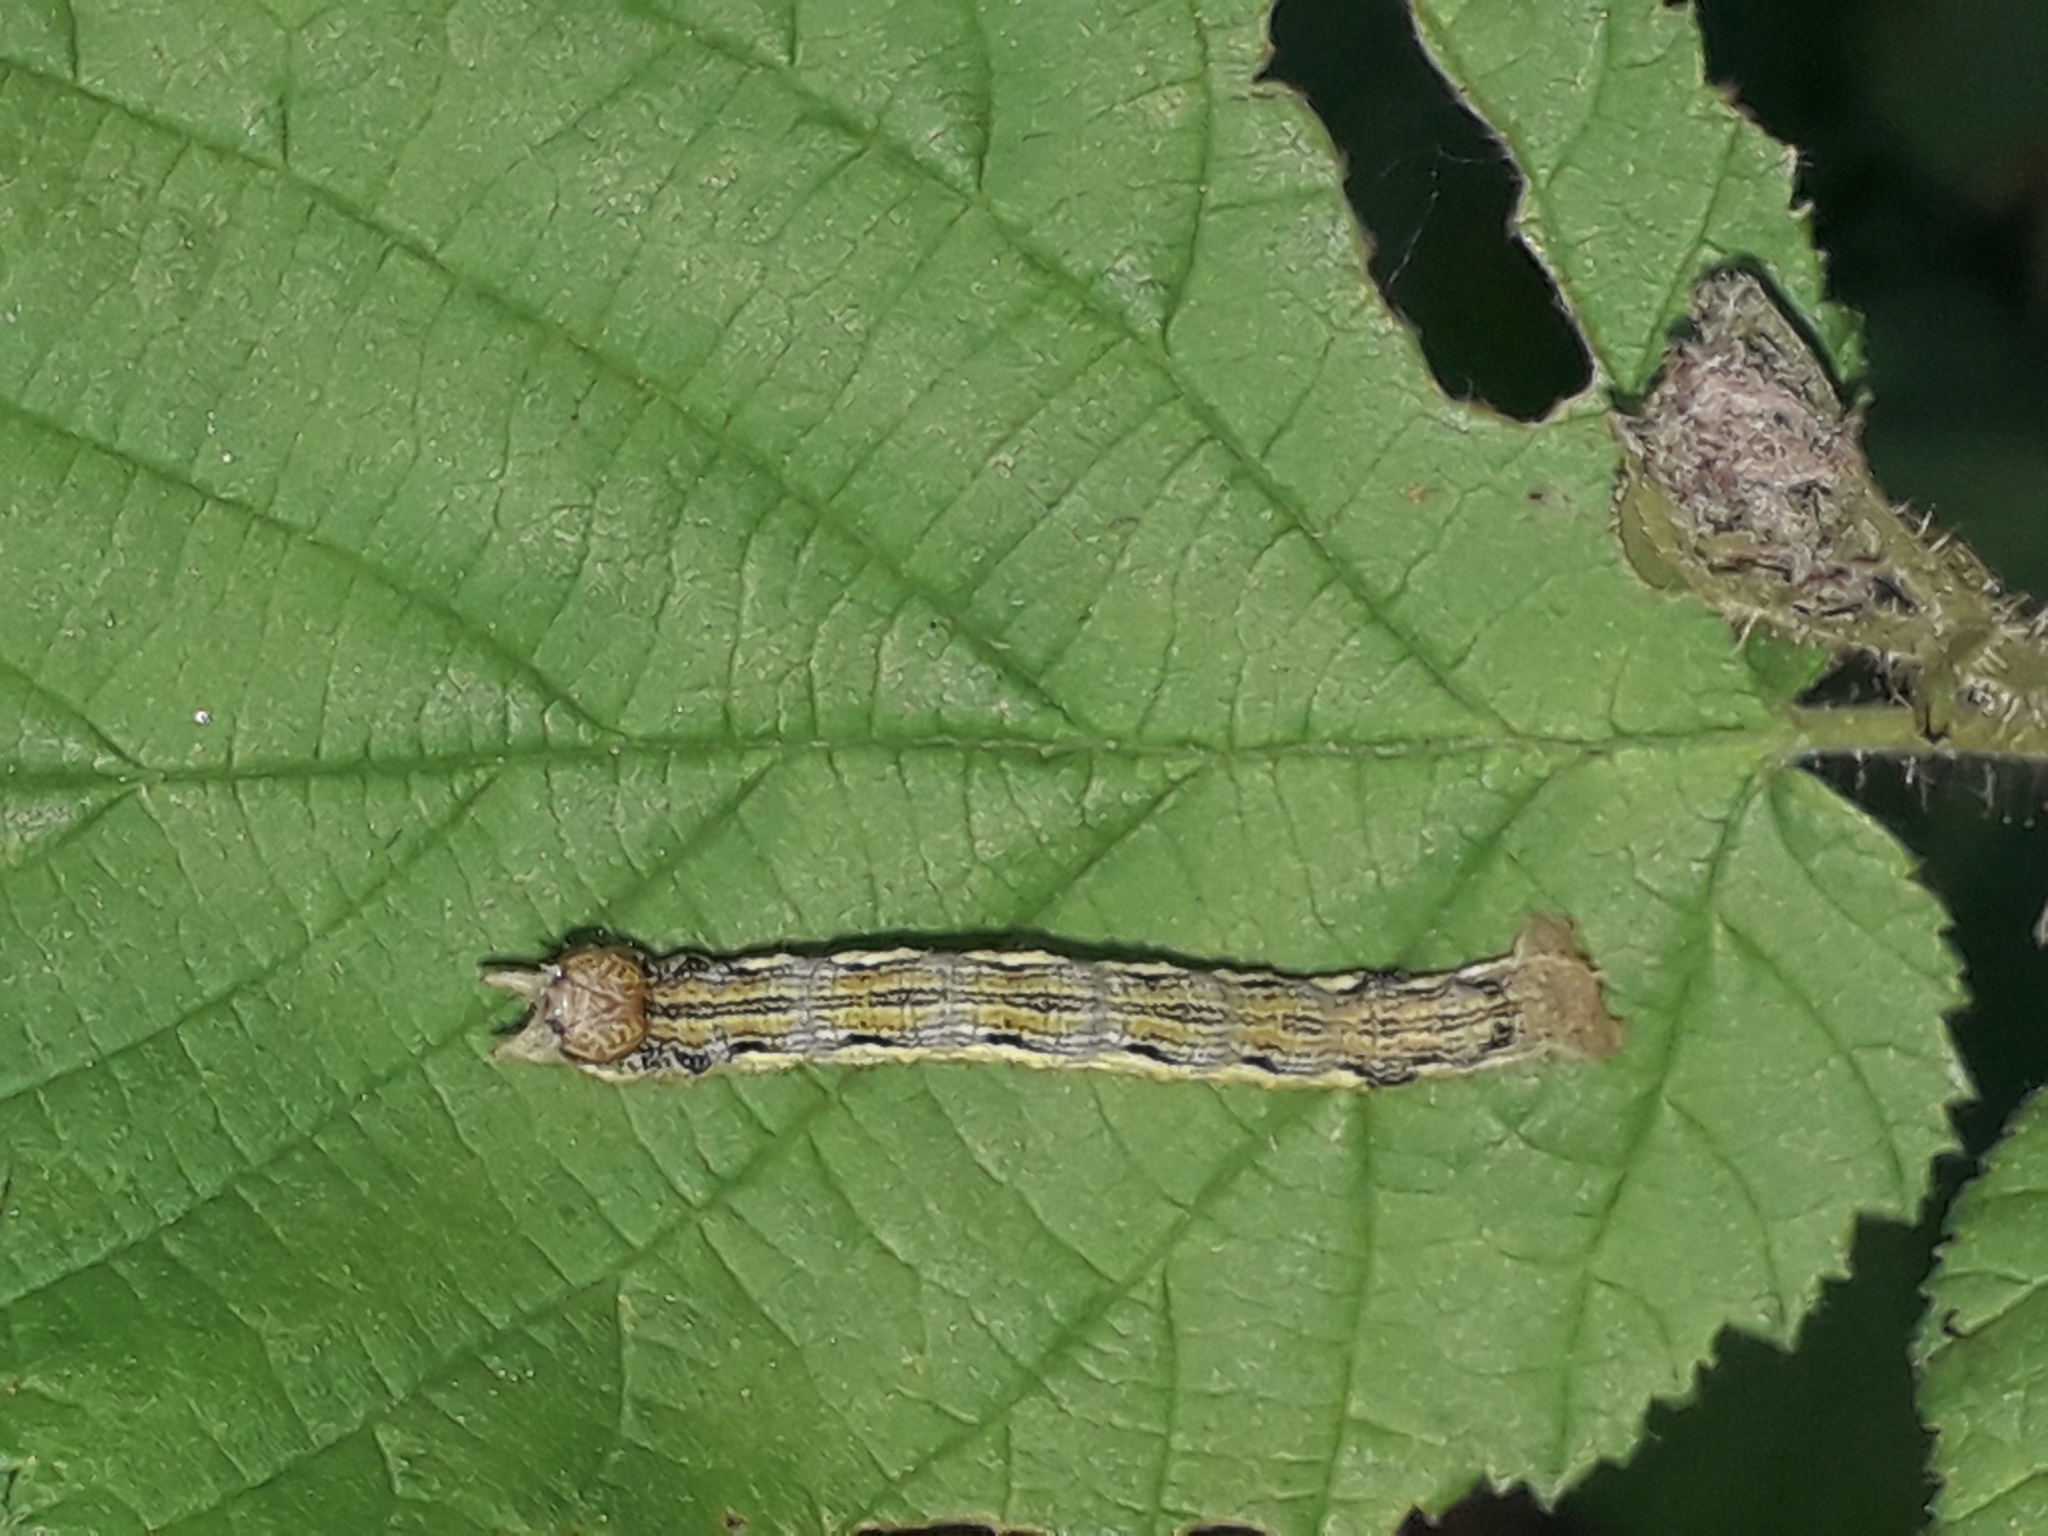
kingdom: Animalia
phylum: Arthropoda
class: Insecta
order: Lepidoptera
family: Geometridae
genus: Erannis
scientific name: Erannis defoliaria
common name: Mottled umber
